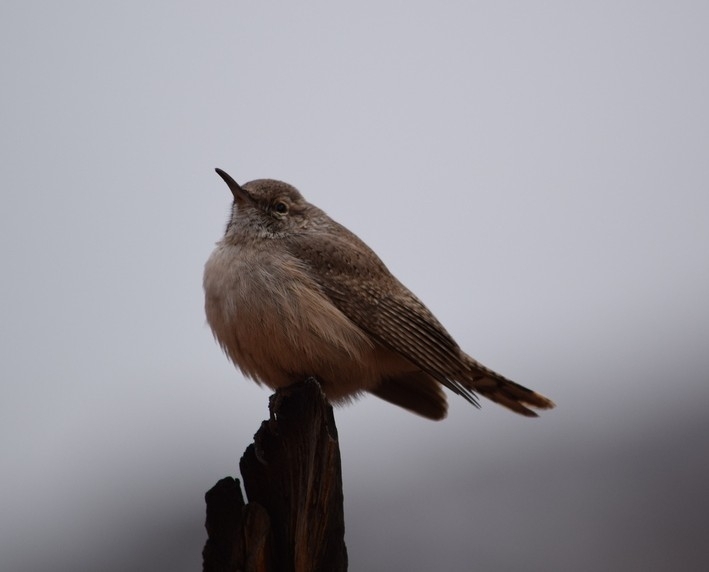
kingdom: Animalia
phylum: Chordata
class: Aves
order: Passeriformes
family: Troglodytidae
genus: Salpinctes
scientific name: Salpinctes obsoletus
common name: Rock wren
